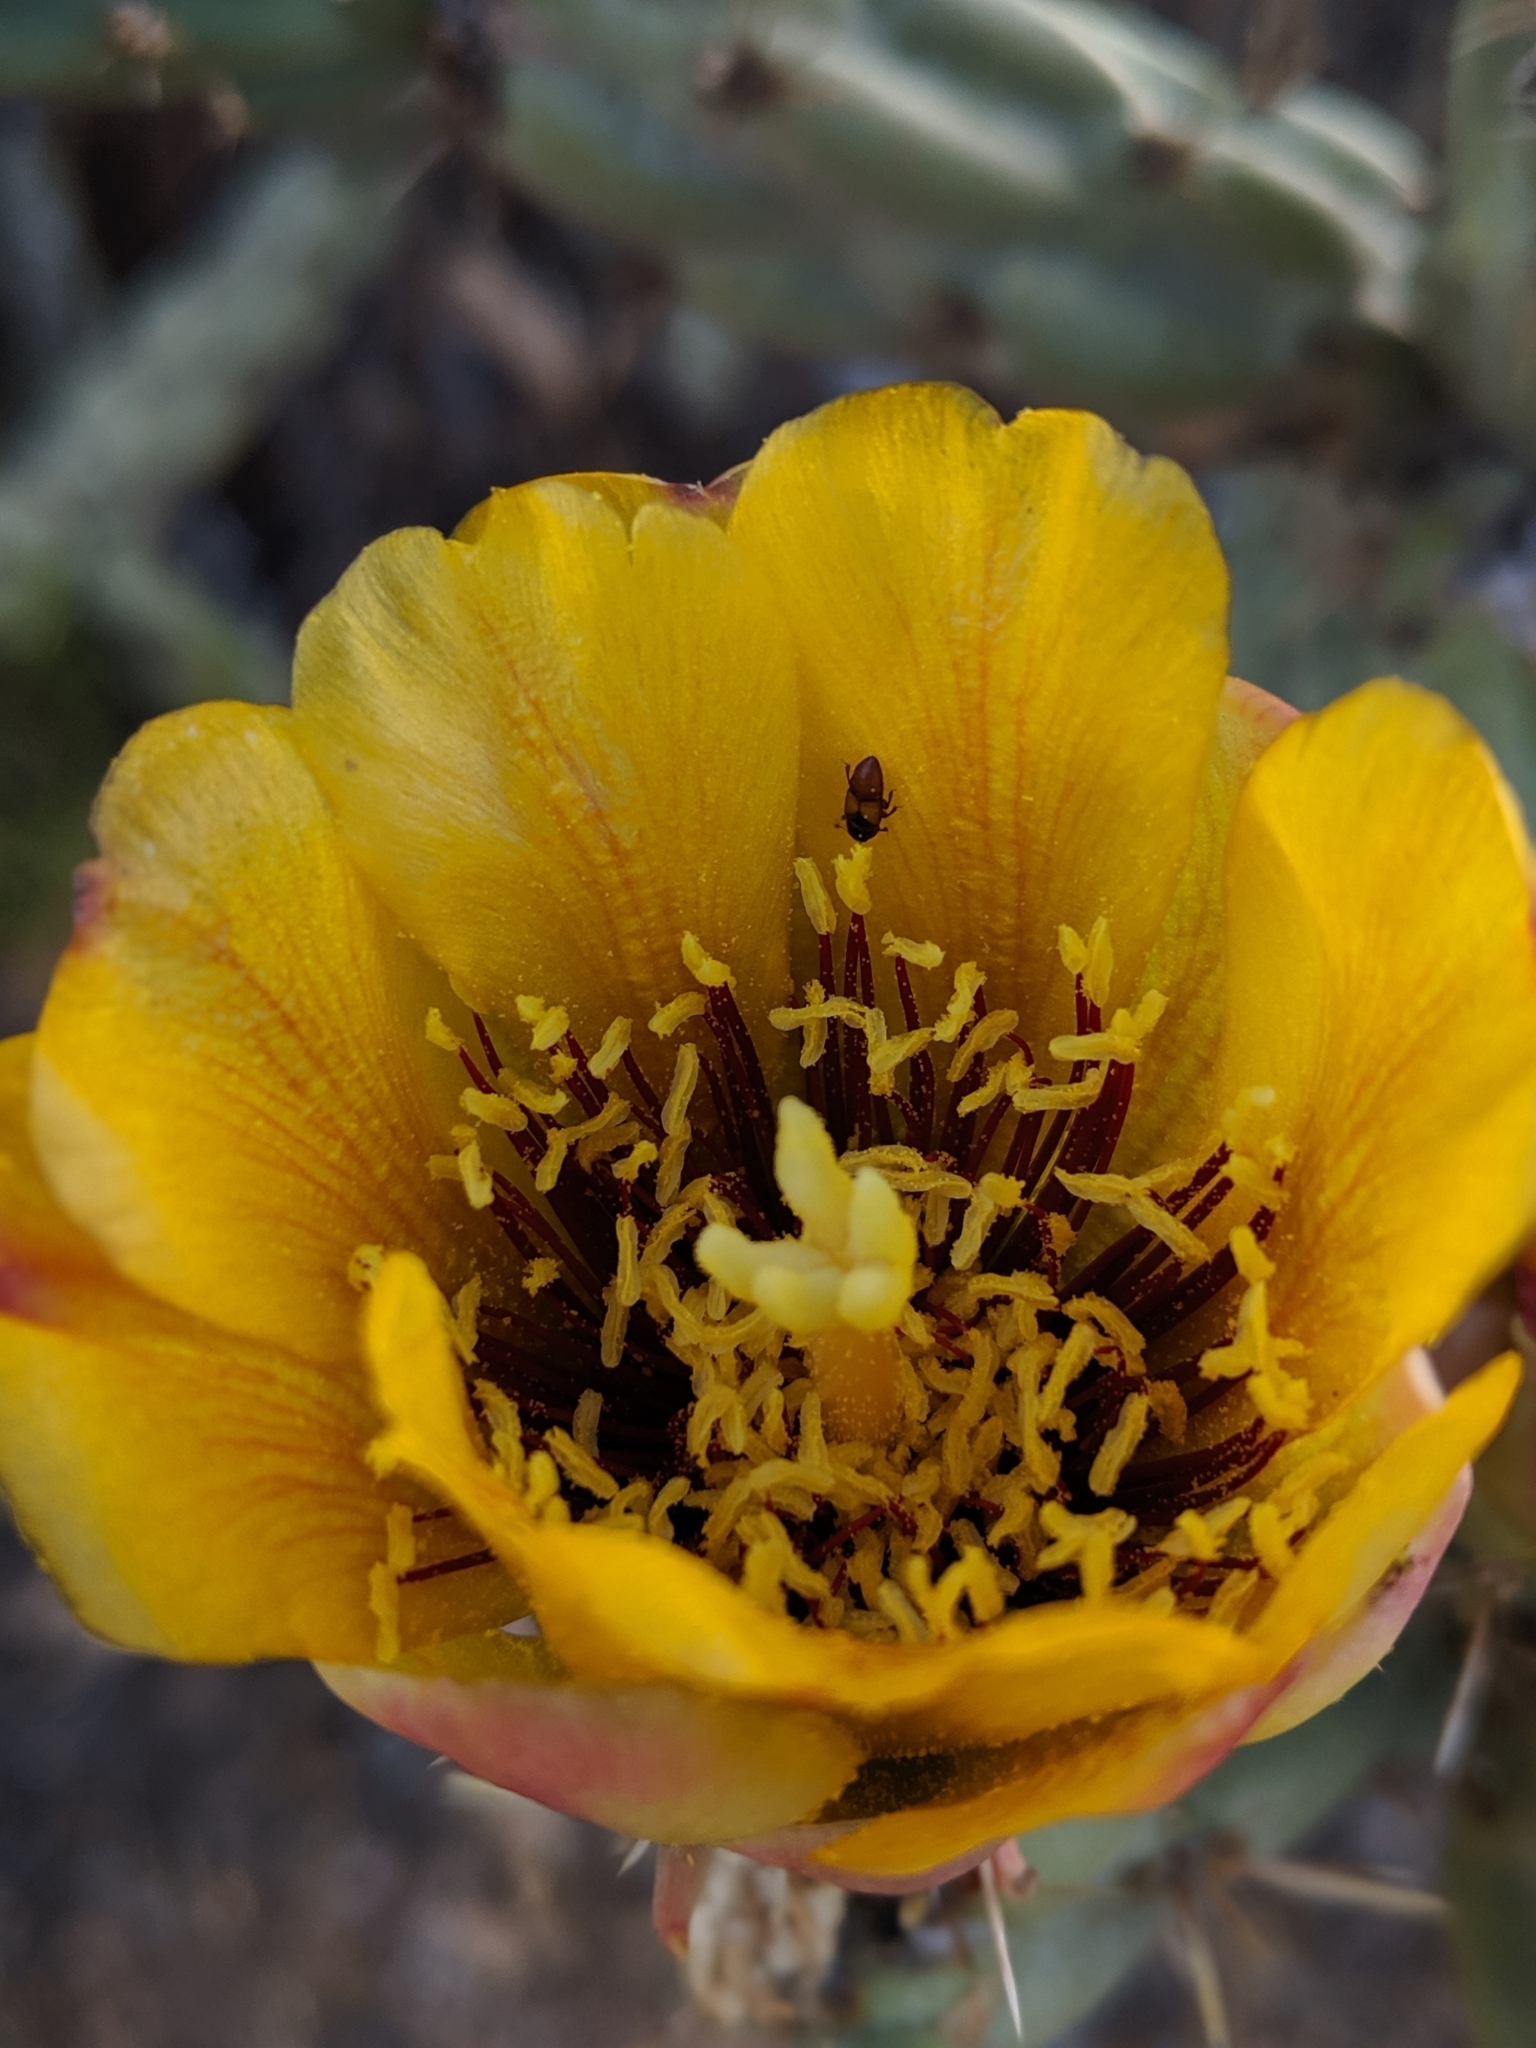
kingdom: Animalia
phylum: Arthropoda
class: Insecta
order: Coleoptera
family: Nitidulidae
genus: Nitops
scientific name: Nitops pallipennis
